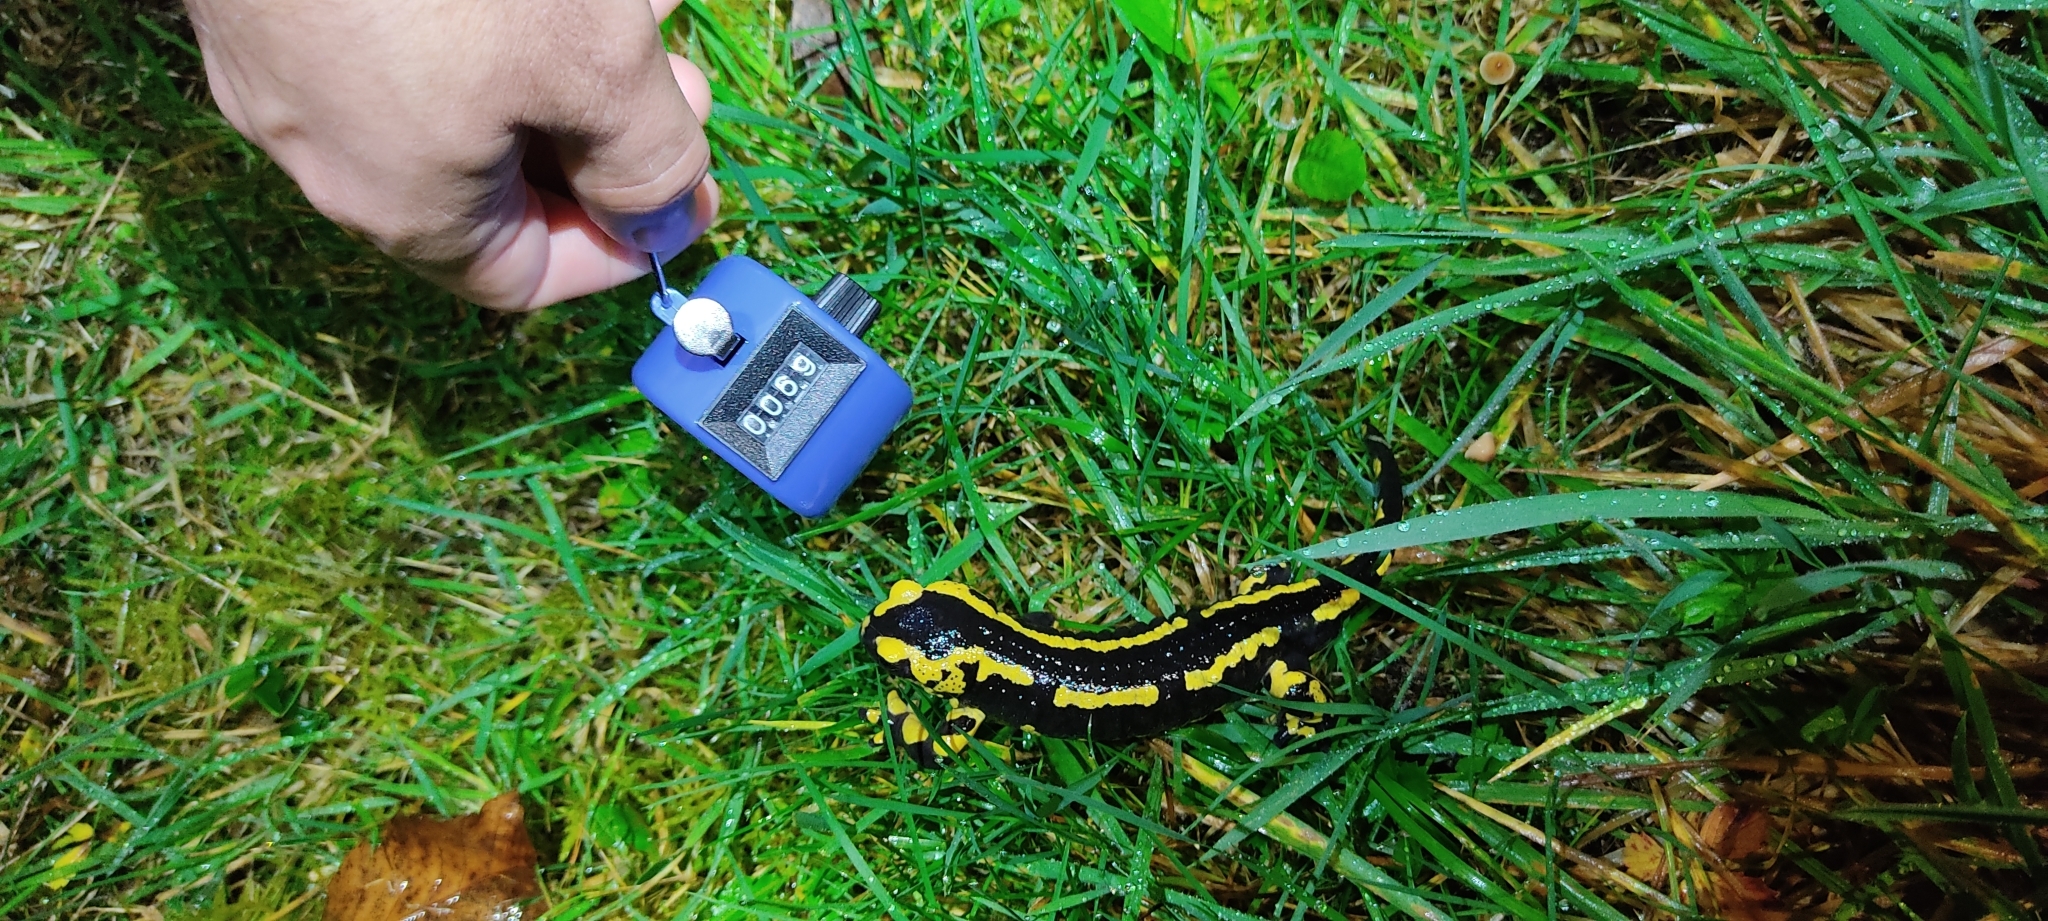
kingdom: Animalia
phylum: Chordata
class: Amphibia
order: Caudata
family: Salamandridae
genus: Salamandra
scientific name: Salamandra salamandra
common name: Fire salamander
